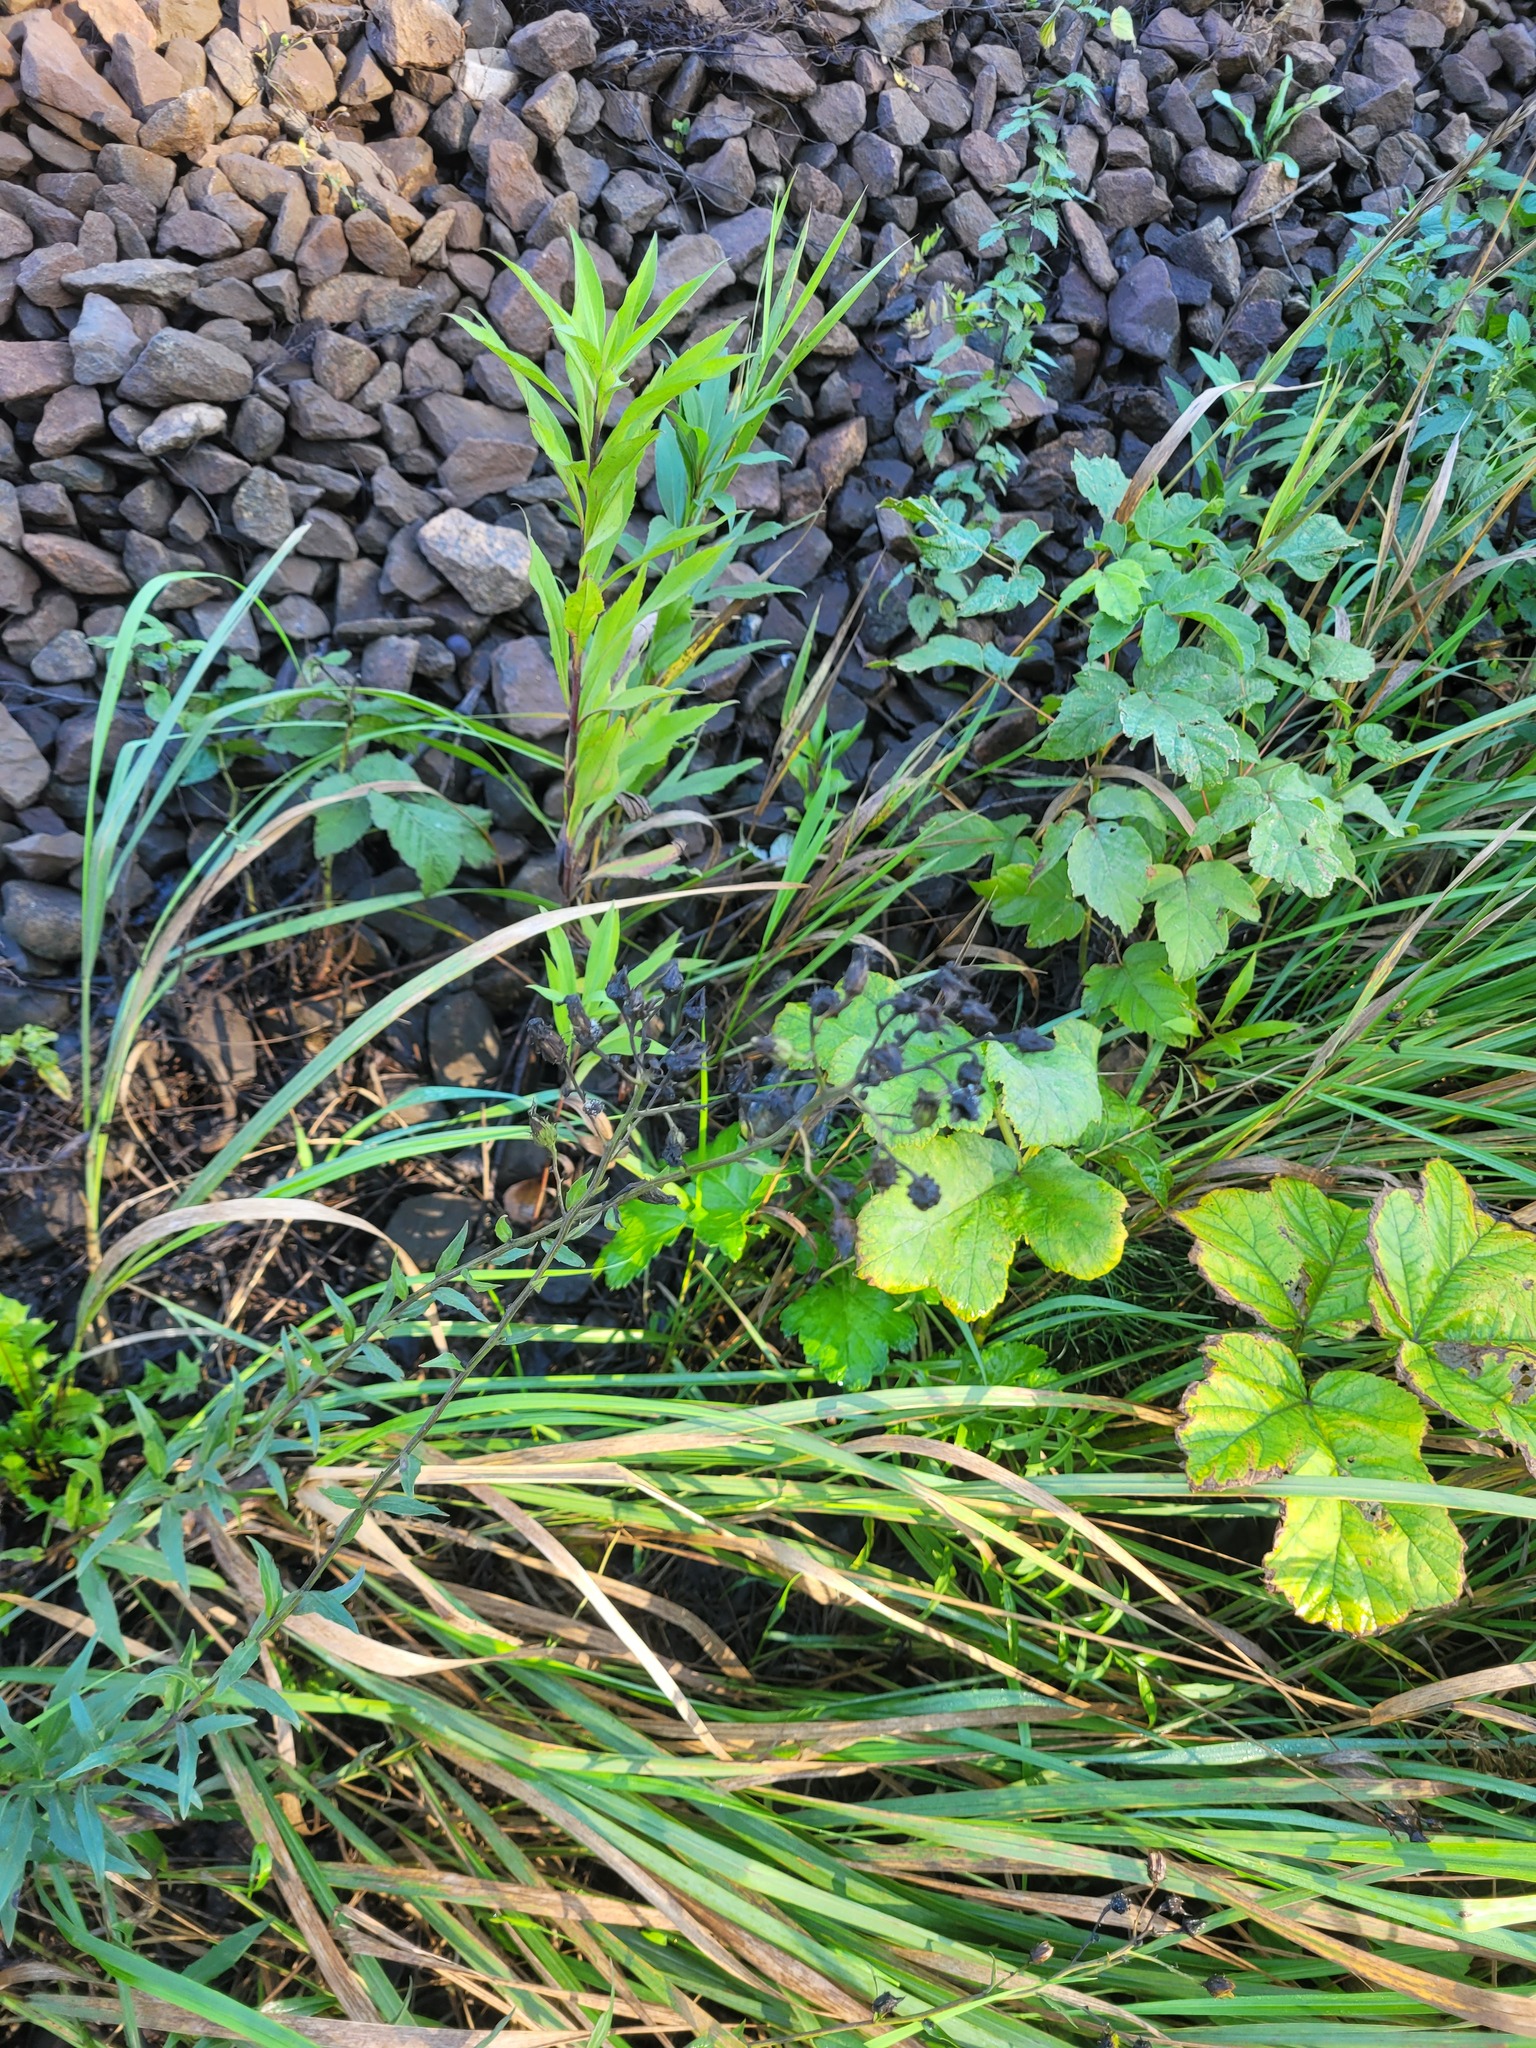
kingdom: Plantae
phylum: Tracheophyta
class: Magnoliopsida
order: Asterales
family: Asteraceae
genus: Hieracium
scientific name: Hieracium umbellatum
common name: Northern hawkweed
